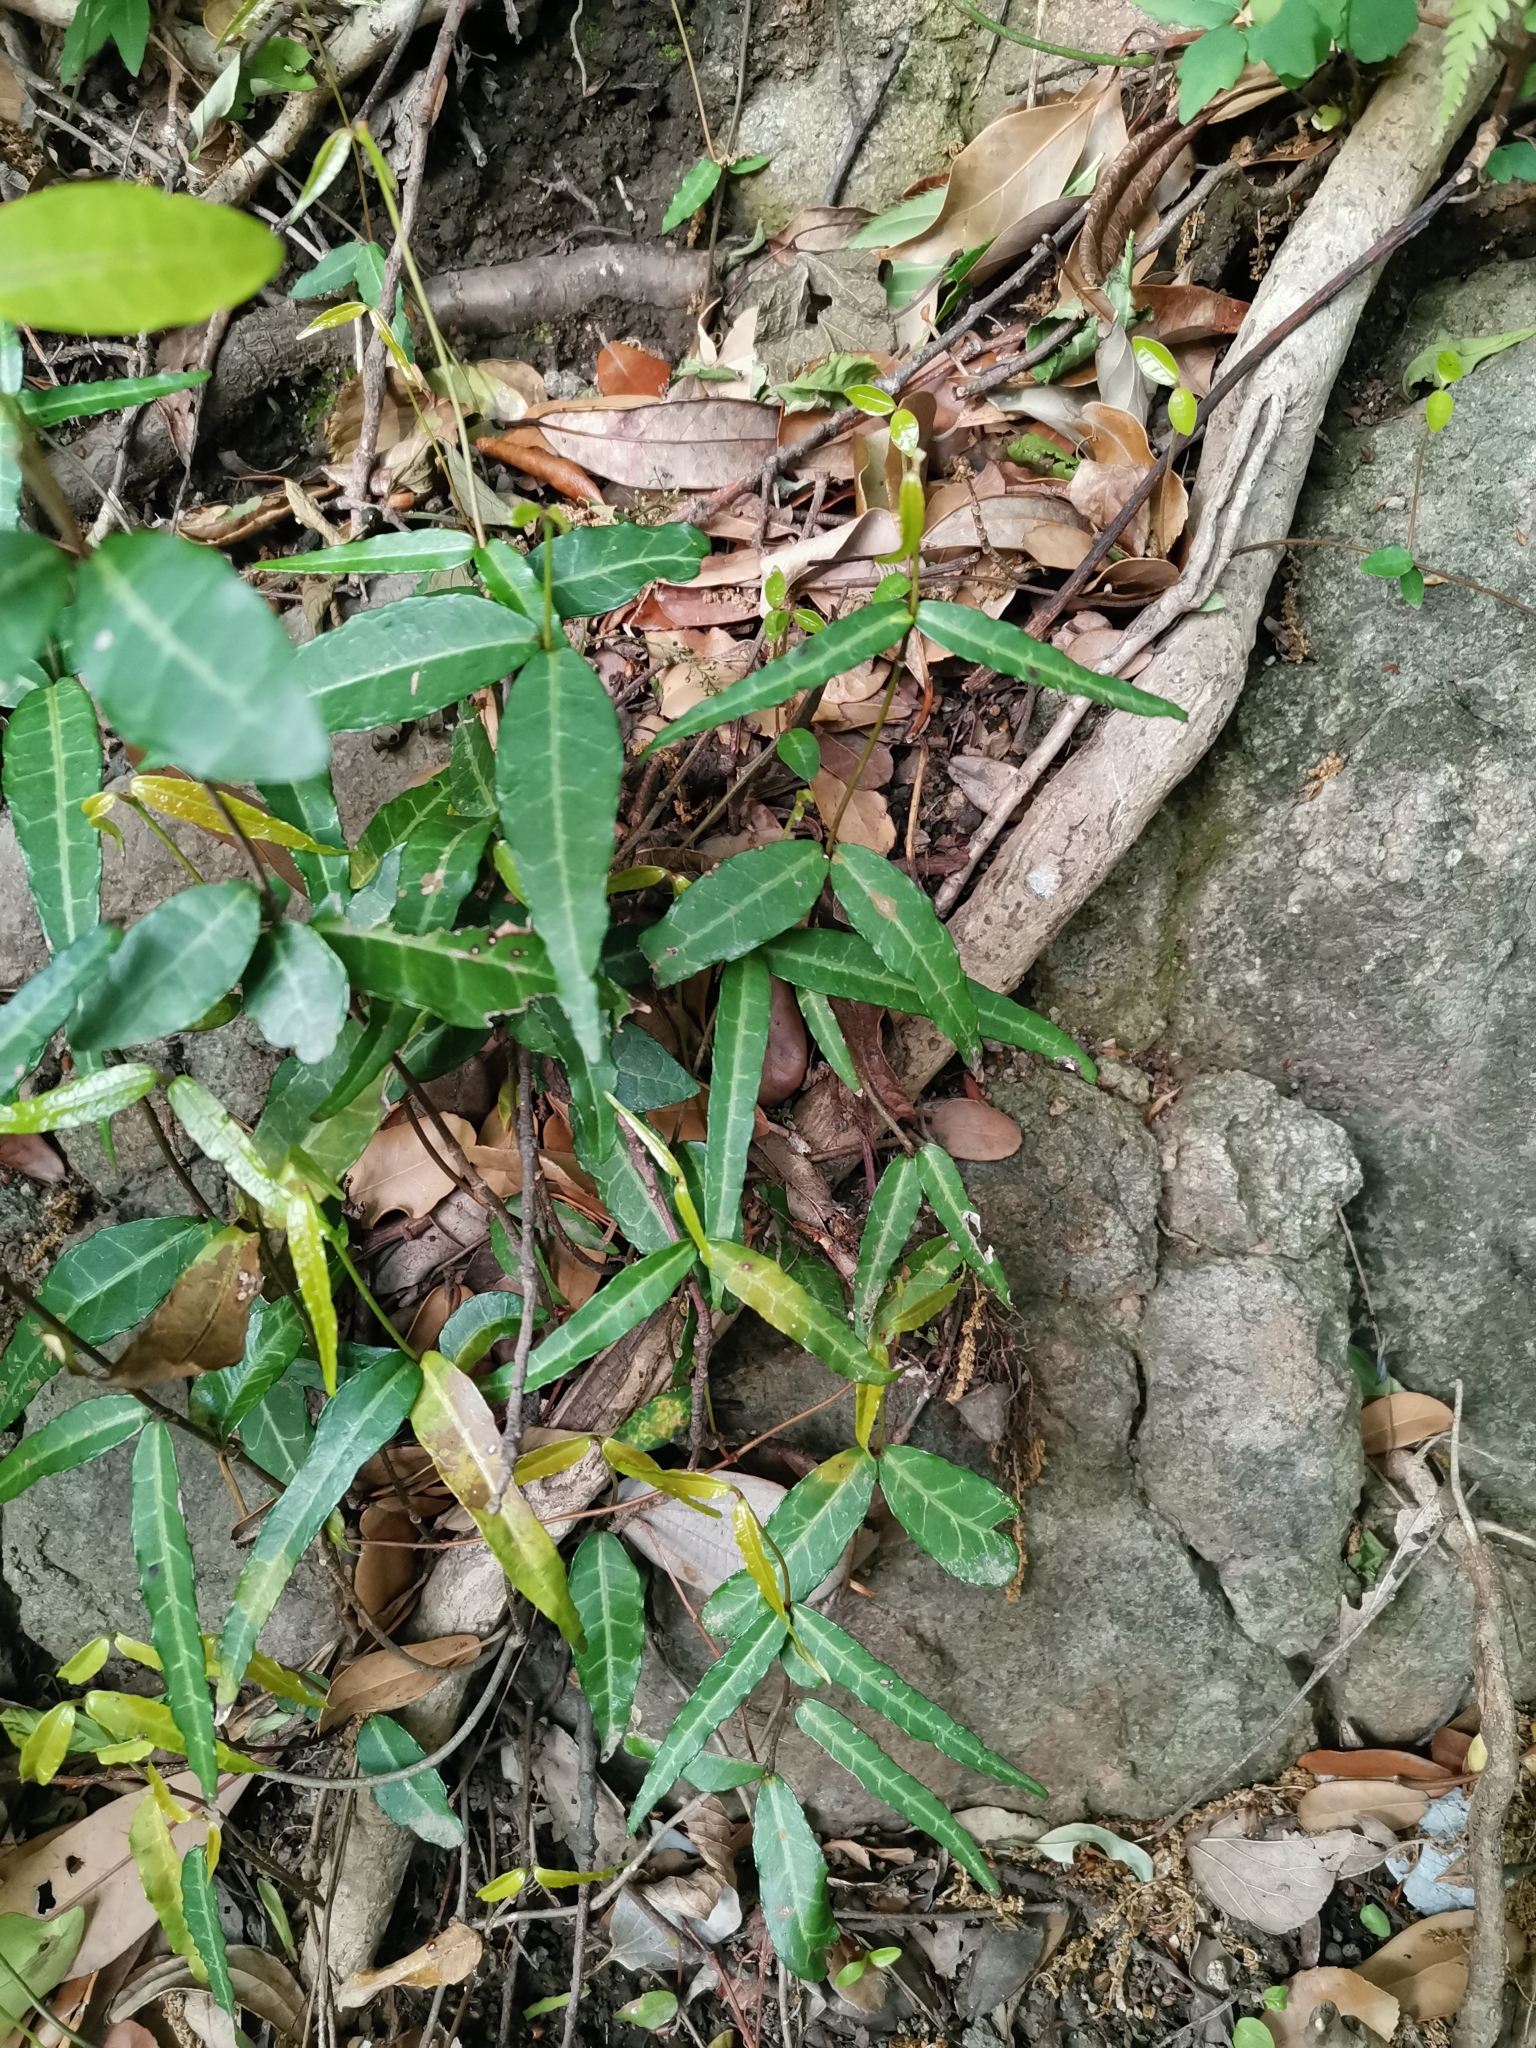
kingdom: Plantae
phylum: Tracheophyta
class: Magnoliopsida
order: Gentianales
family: Apocynaceae
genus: Trachelospermum
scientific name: Trachelospermum asiaticum
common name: Asiatic jasmine
